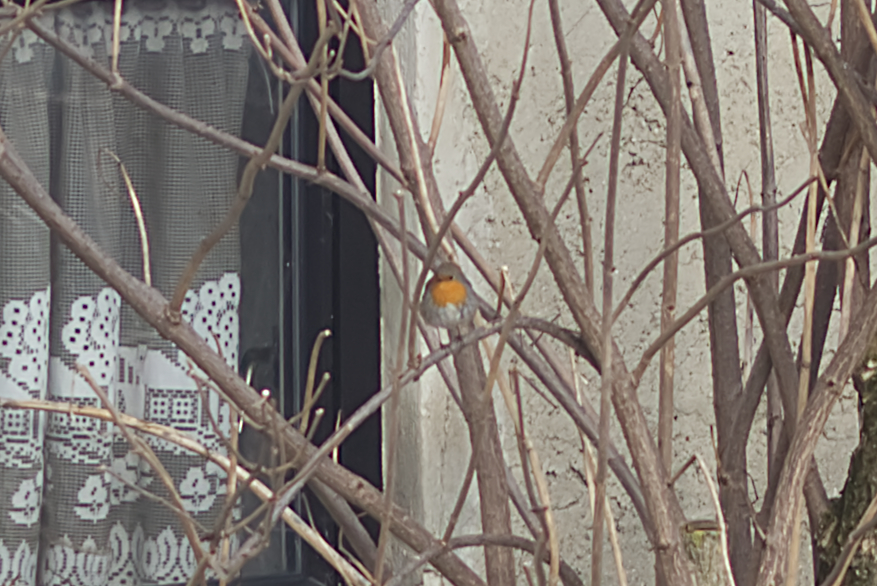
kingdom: Animalia
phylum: Chordata
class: Aves
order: Passeriformes
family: Muscicapidae
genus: Erithacus
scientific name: Erithacus rubecula
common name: European robin
